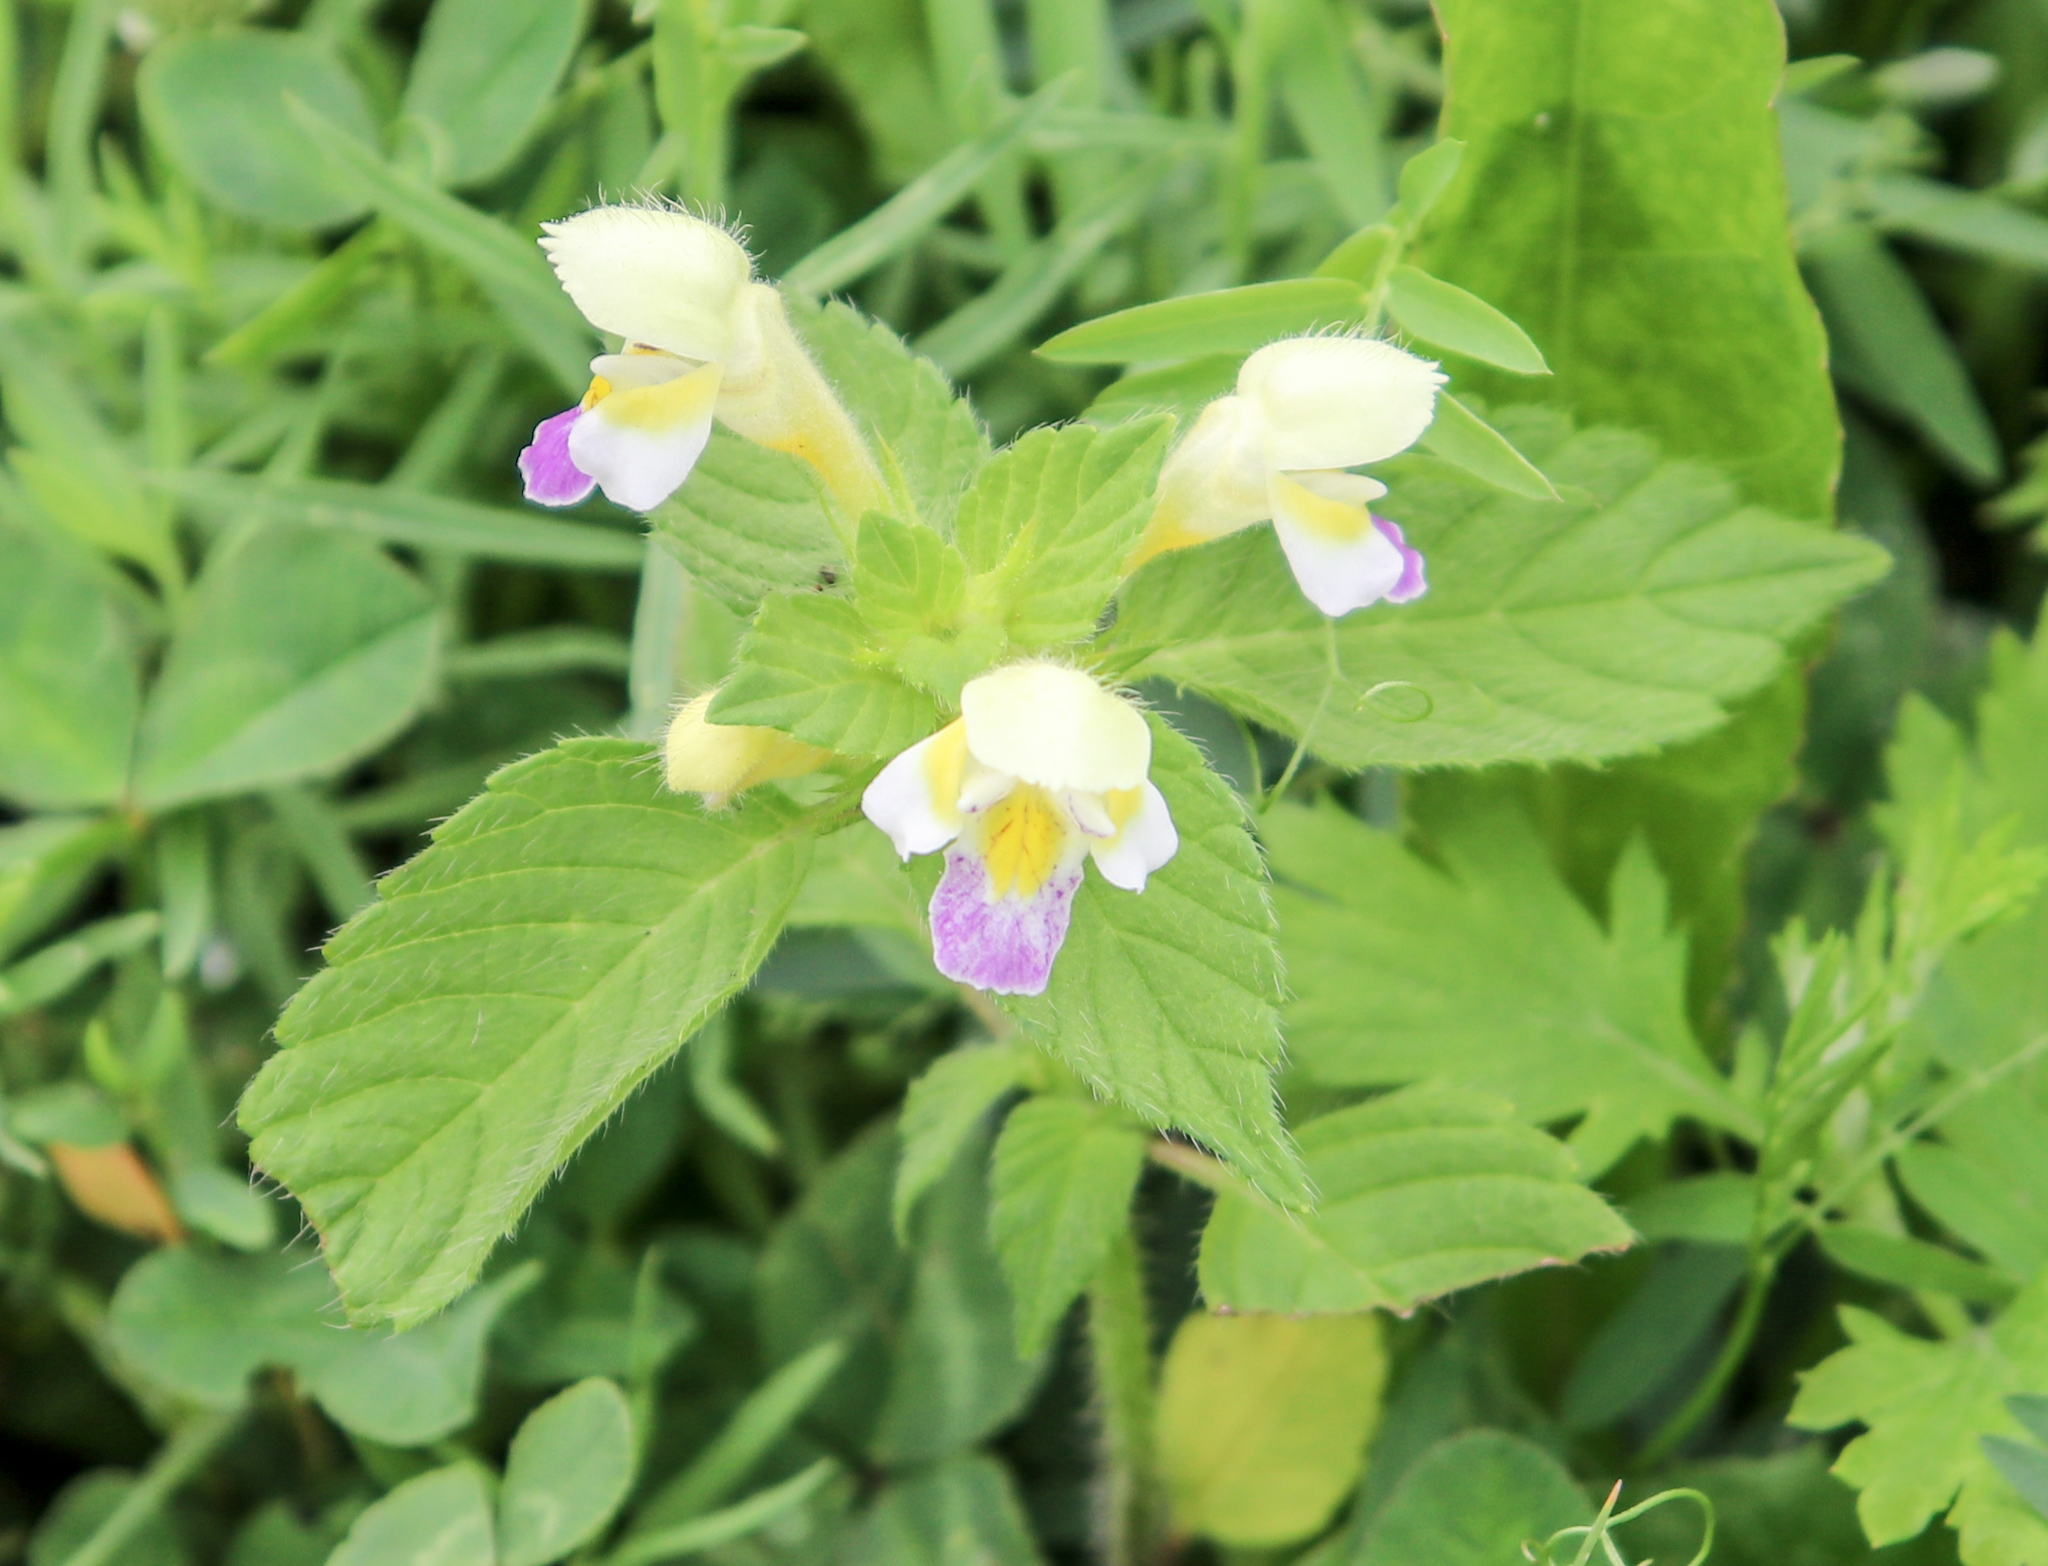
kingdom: Plantae
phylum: Tracheophyta
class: Magnoliopsida
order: Lamiales
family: Lamiaceae
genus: Galeopsis
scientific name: Galeopsis speciosa
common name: Large-flowered hemp-nettle
